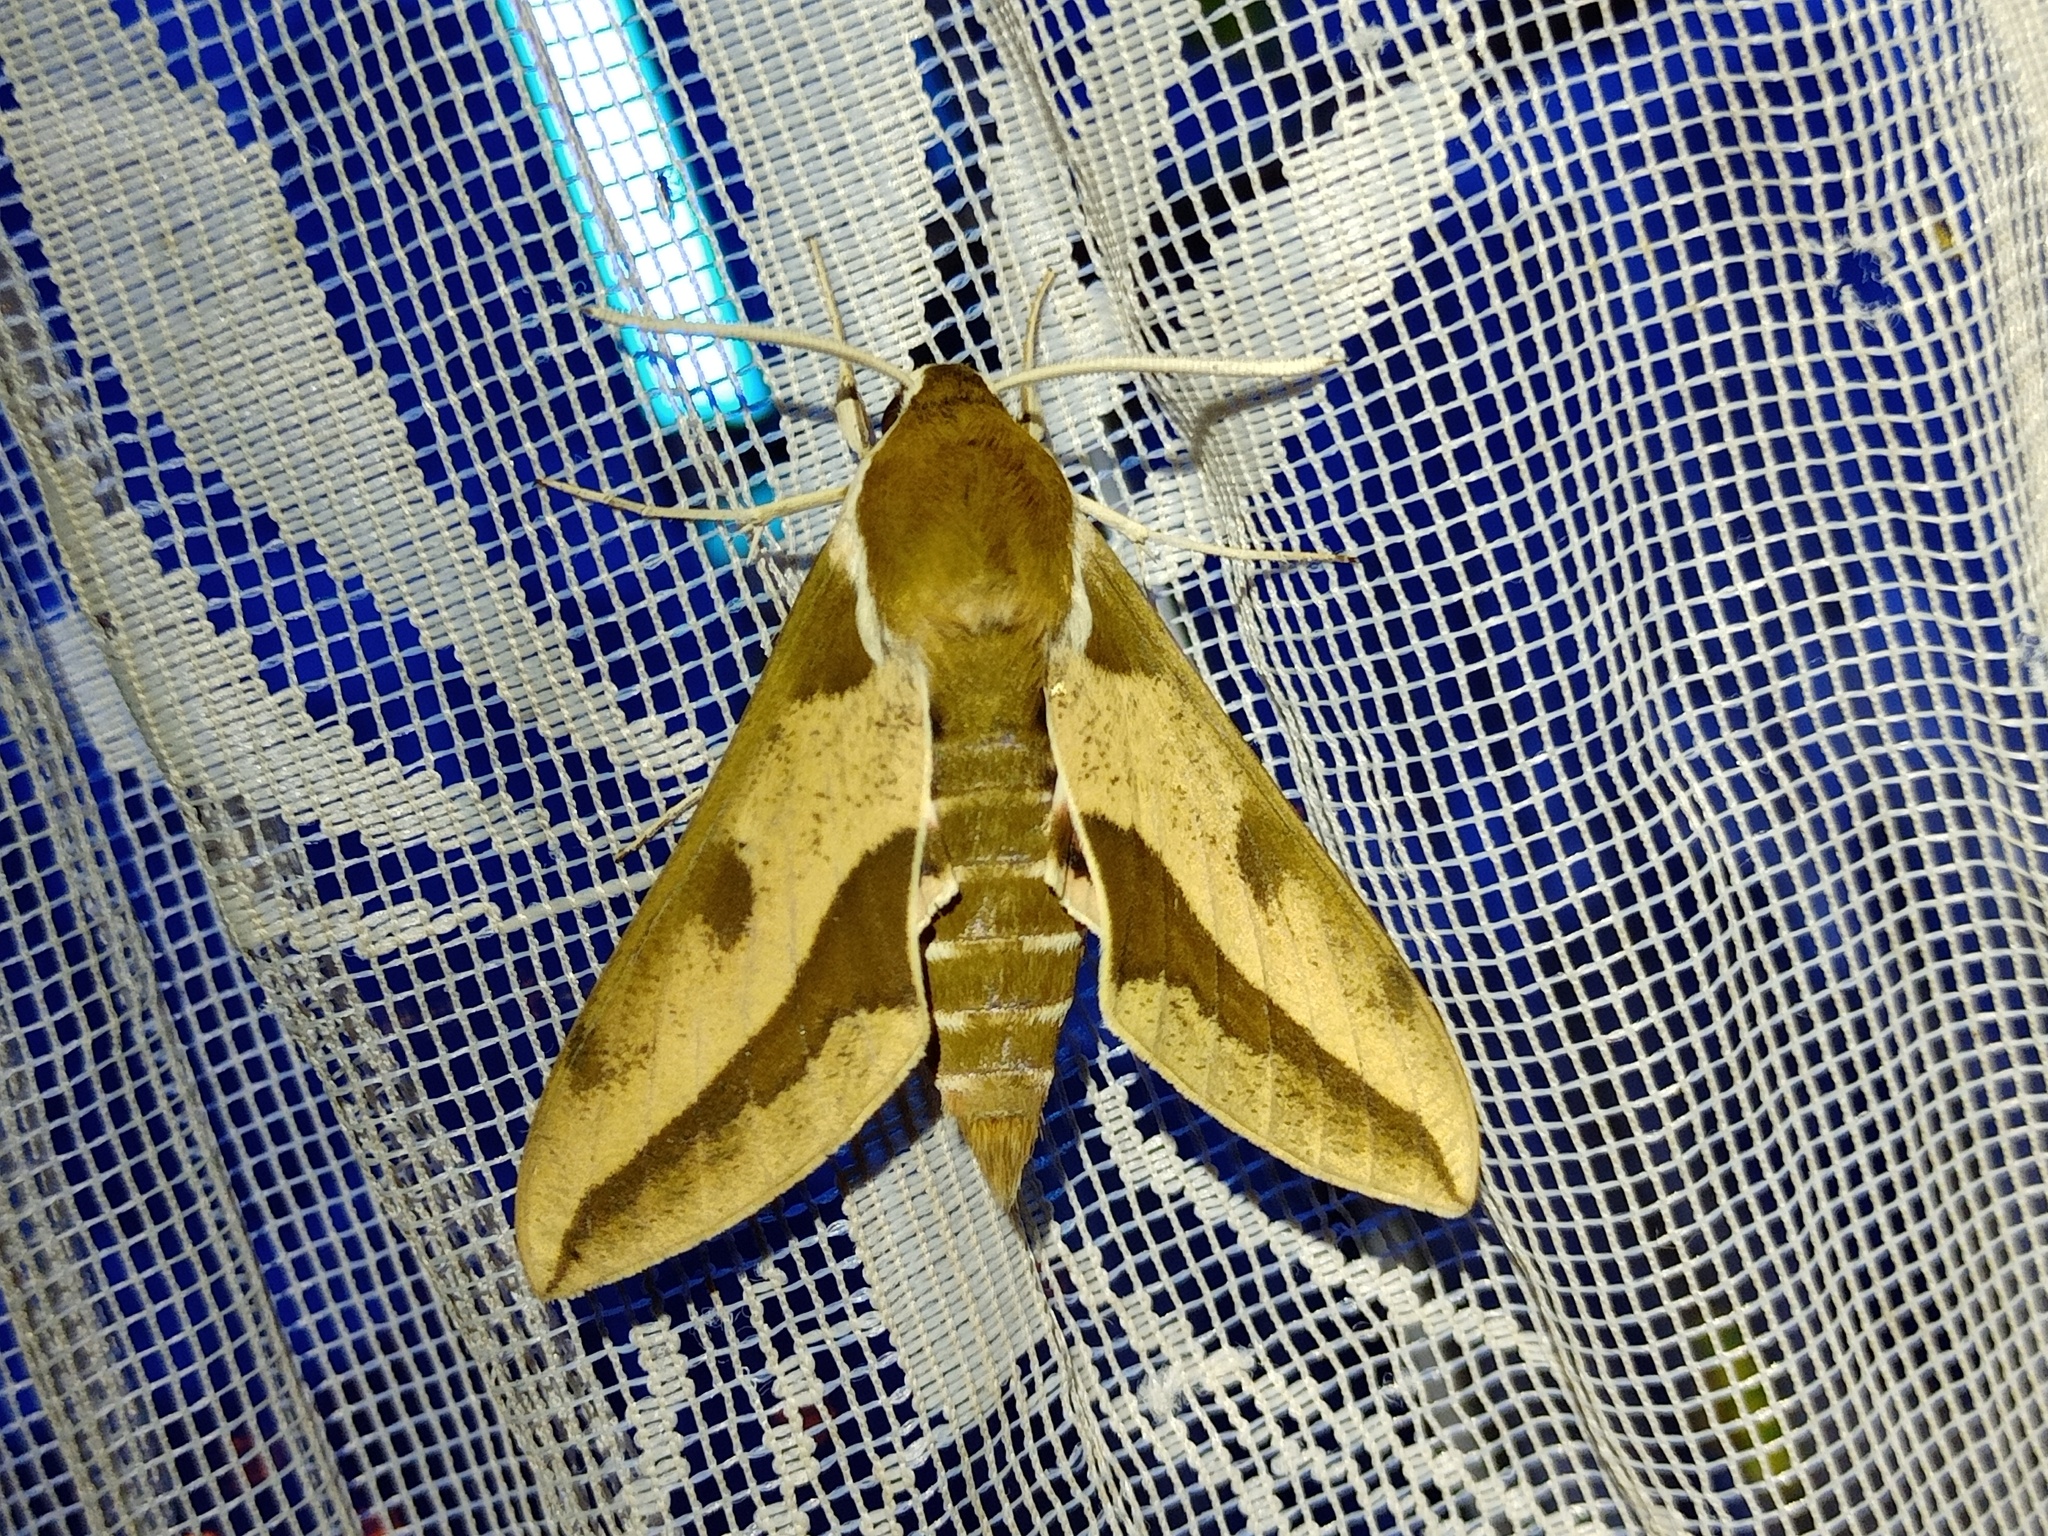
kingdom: Animalia
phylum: Arthropoda
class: Insecta
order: Lepidoptera
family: Sphingidae
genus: Hyles
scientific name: Hyles euphorbiae
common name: Spurge hawk-moth
